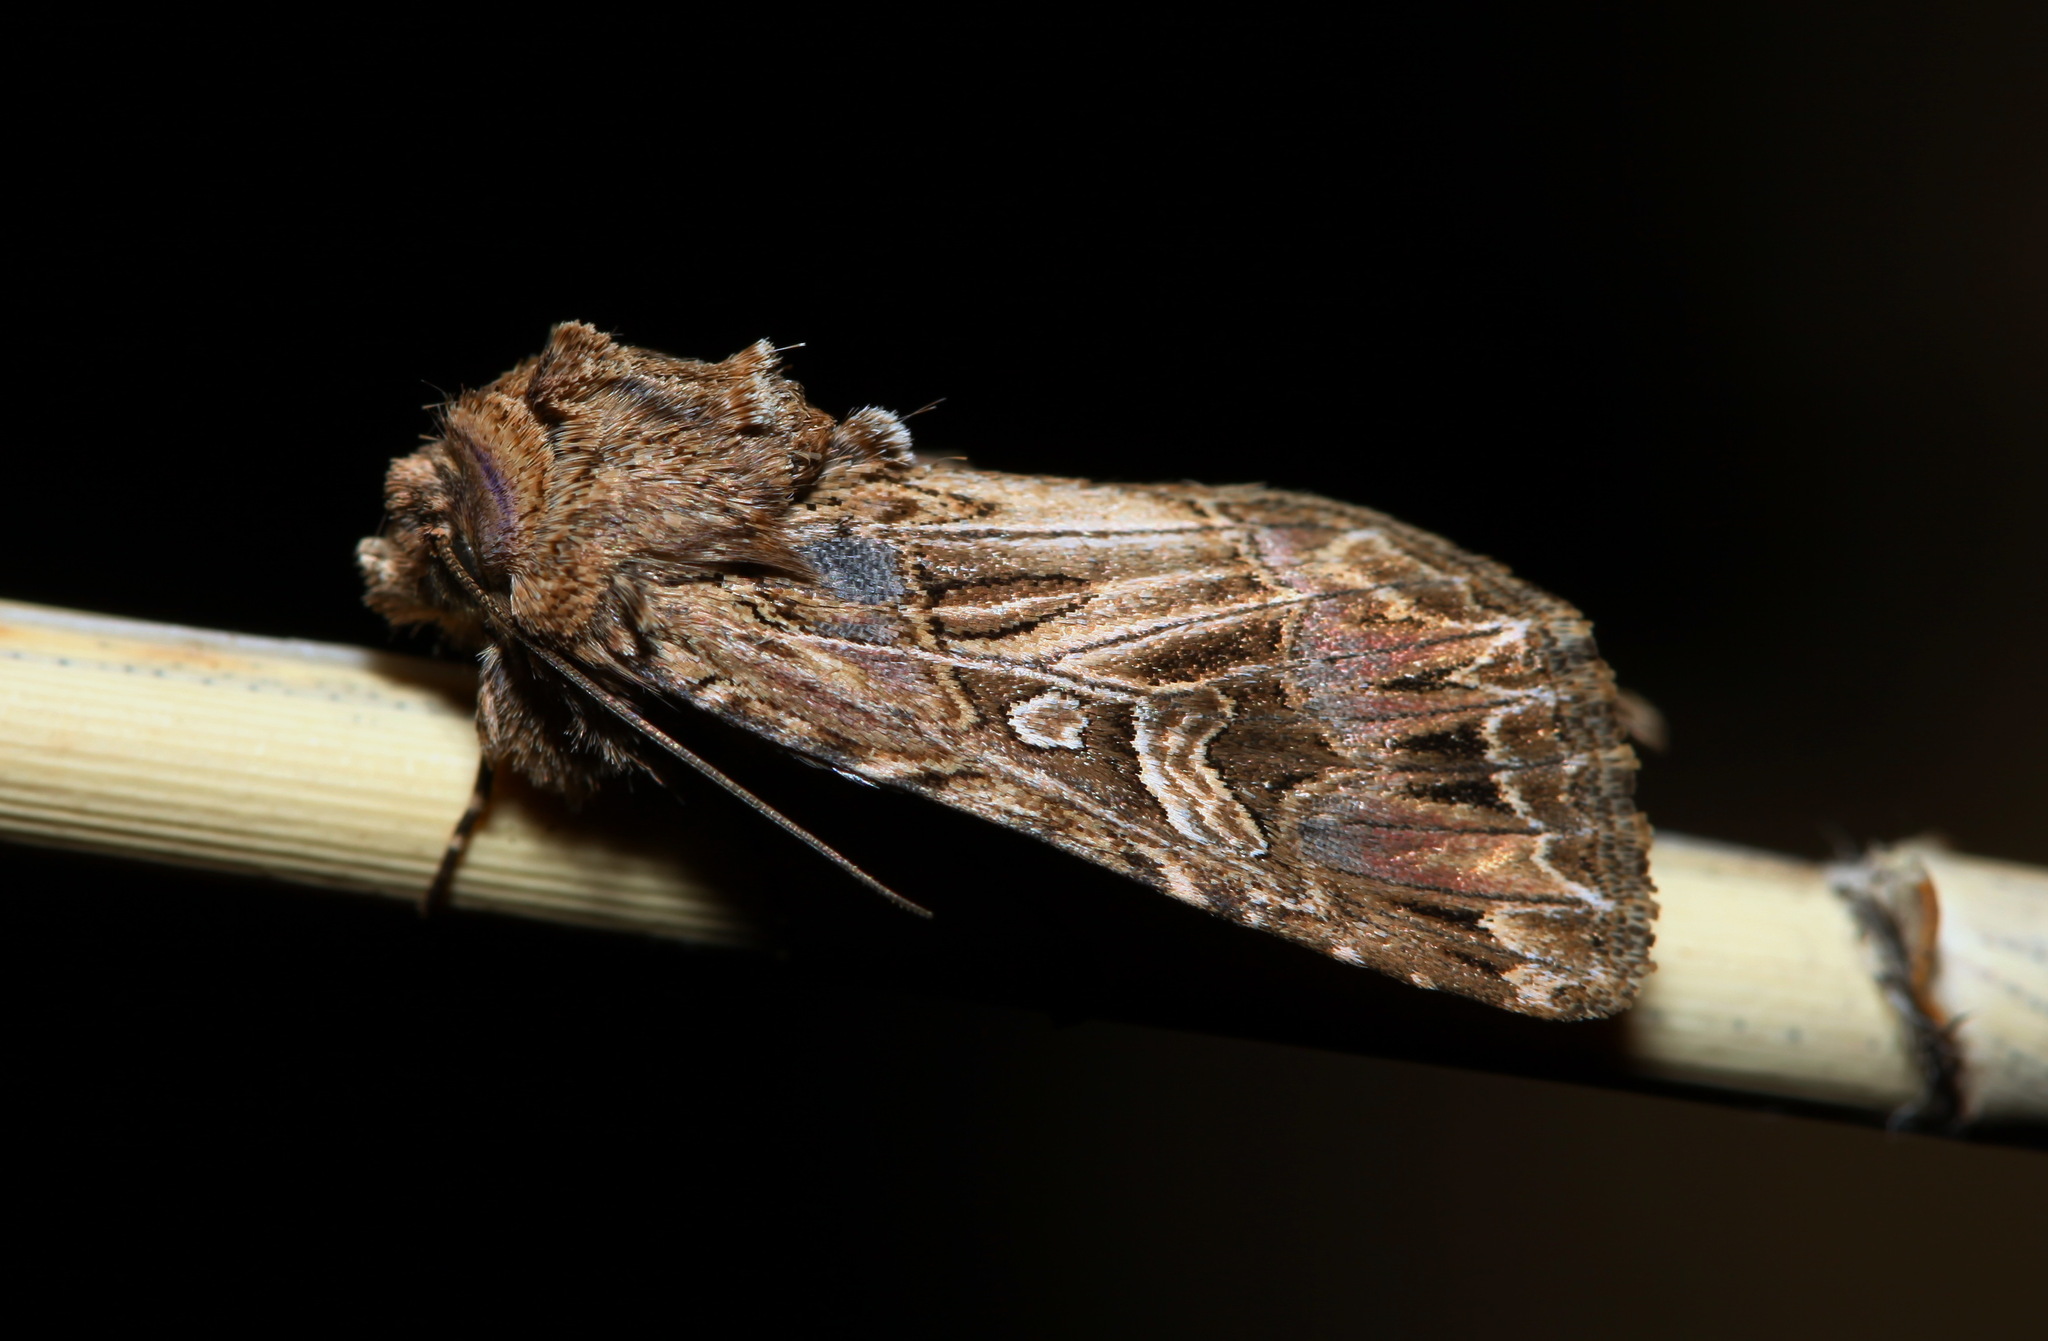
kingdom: Animalia
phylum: Arthropoda
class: Insecta
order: Lepidoptera
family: Noctuidae
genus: Anarta
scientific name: Anarta dianthi
